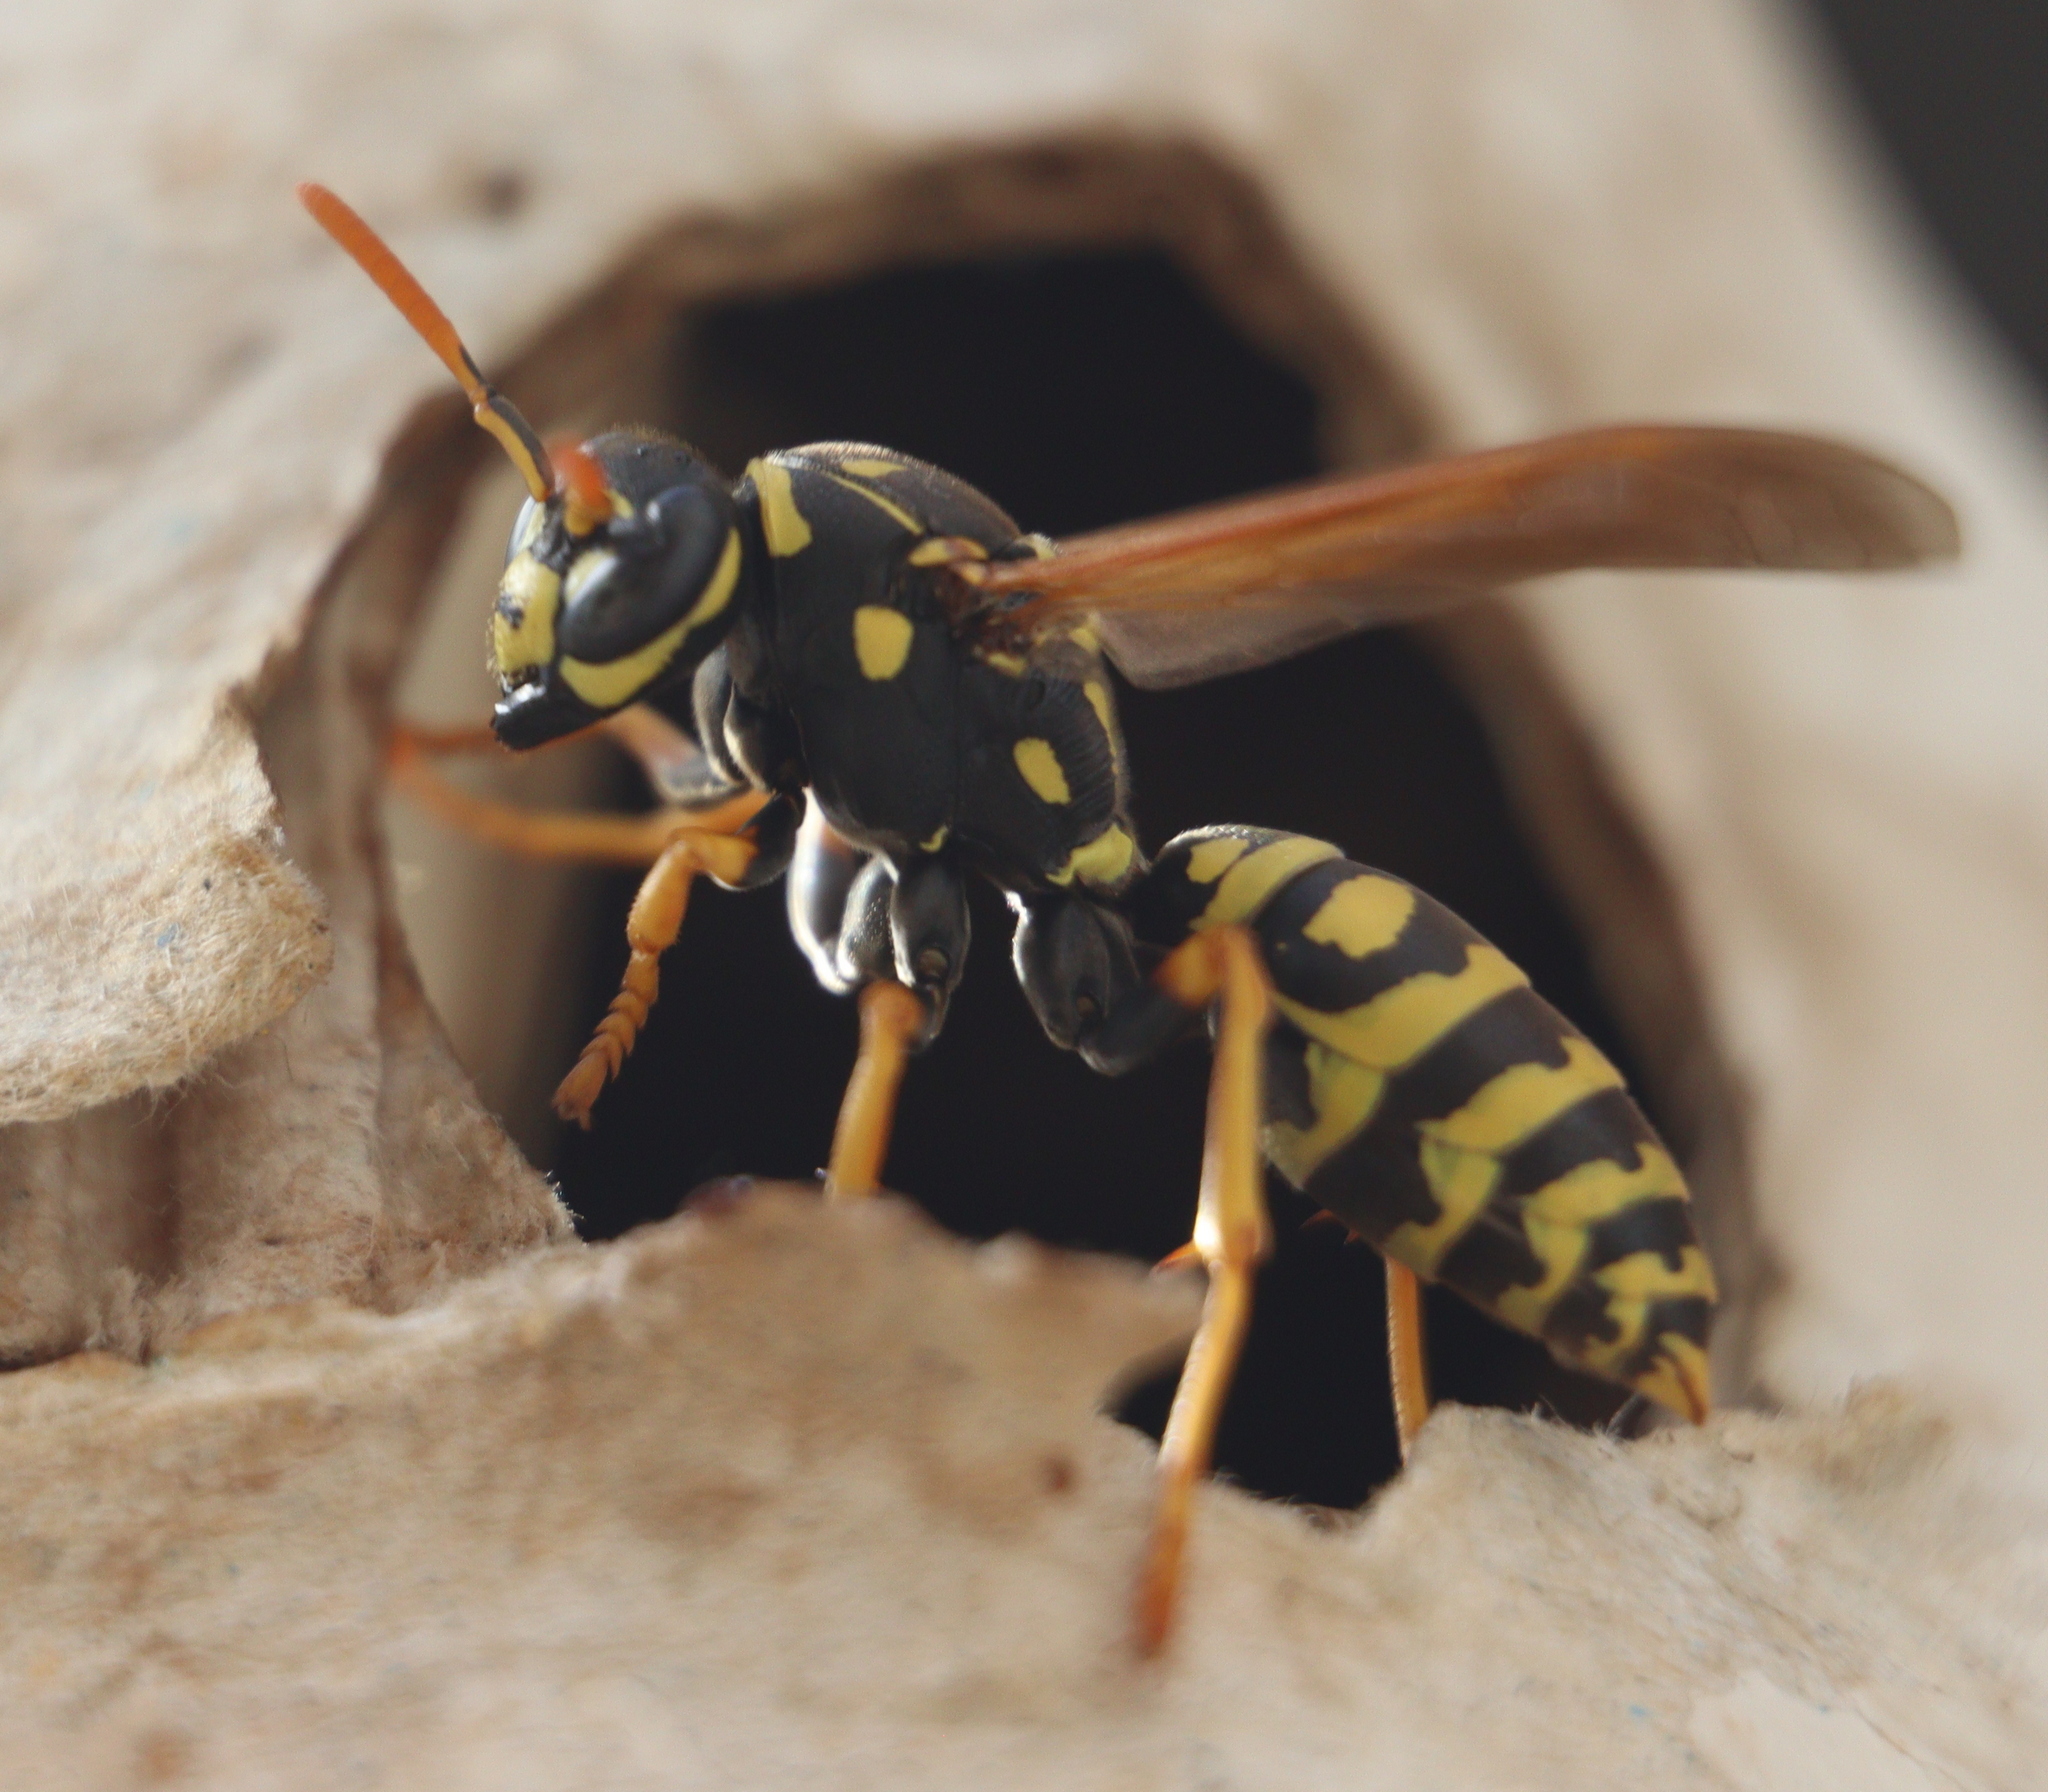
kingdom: Animalia
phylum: Arthropoda
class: Insecta
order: Hymenoptera
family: Eumenidae
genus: Polistes
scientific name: Polistes dominula
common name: Paper wasp
